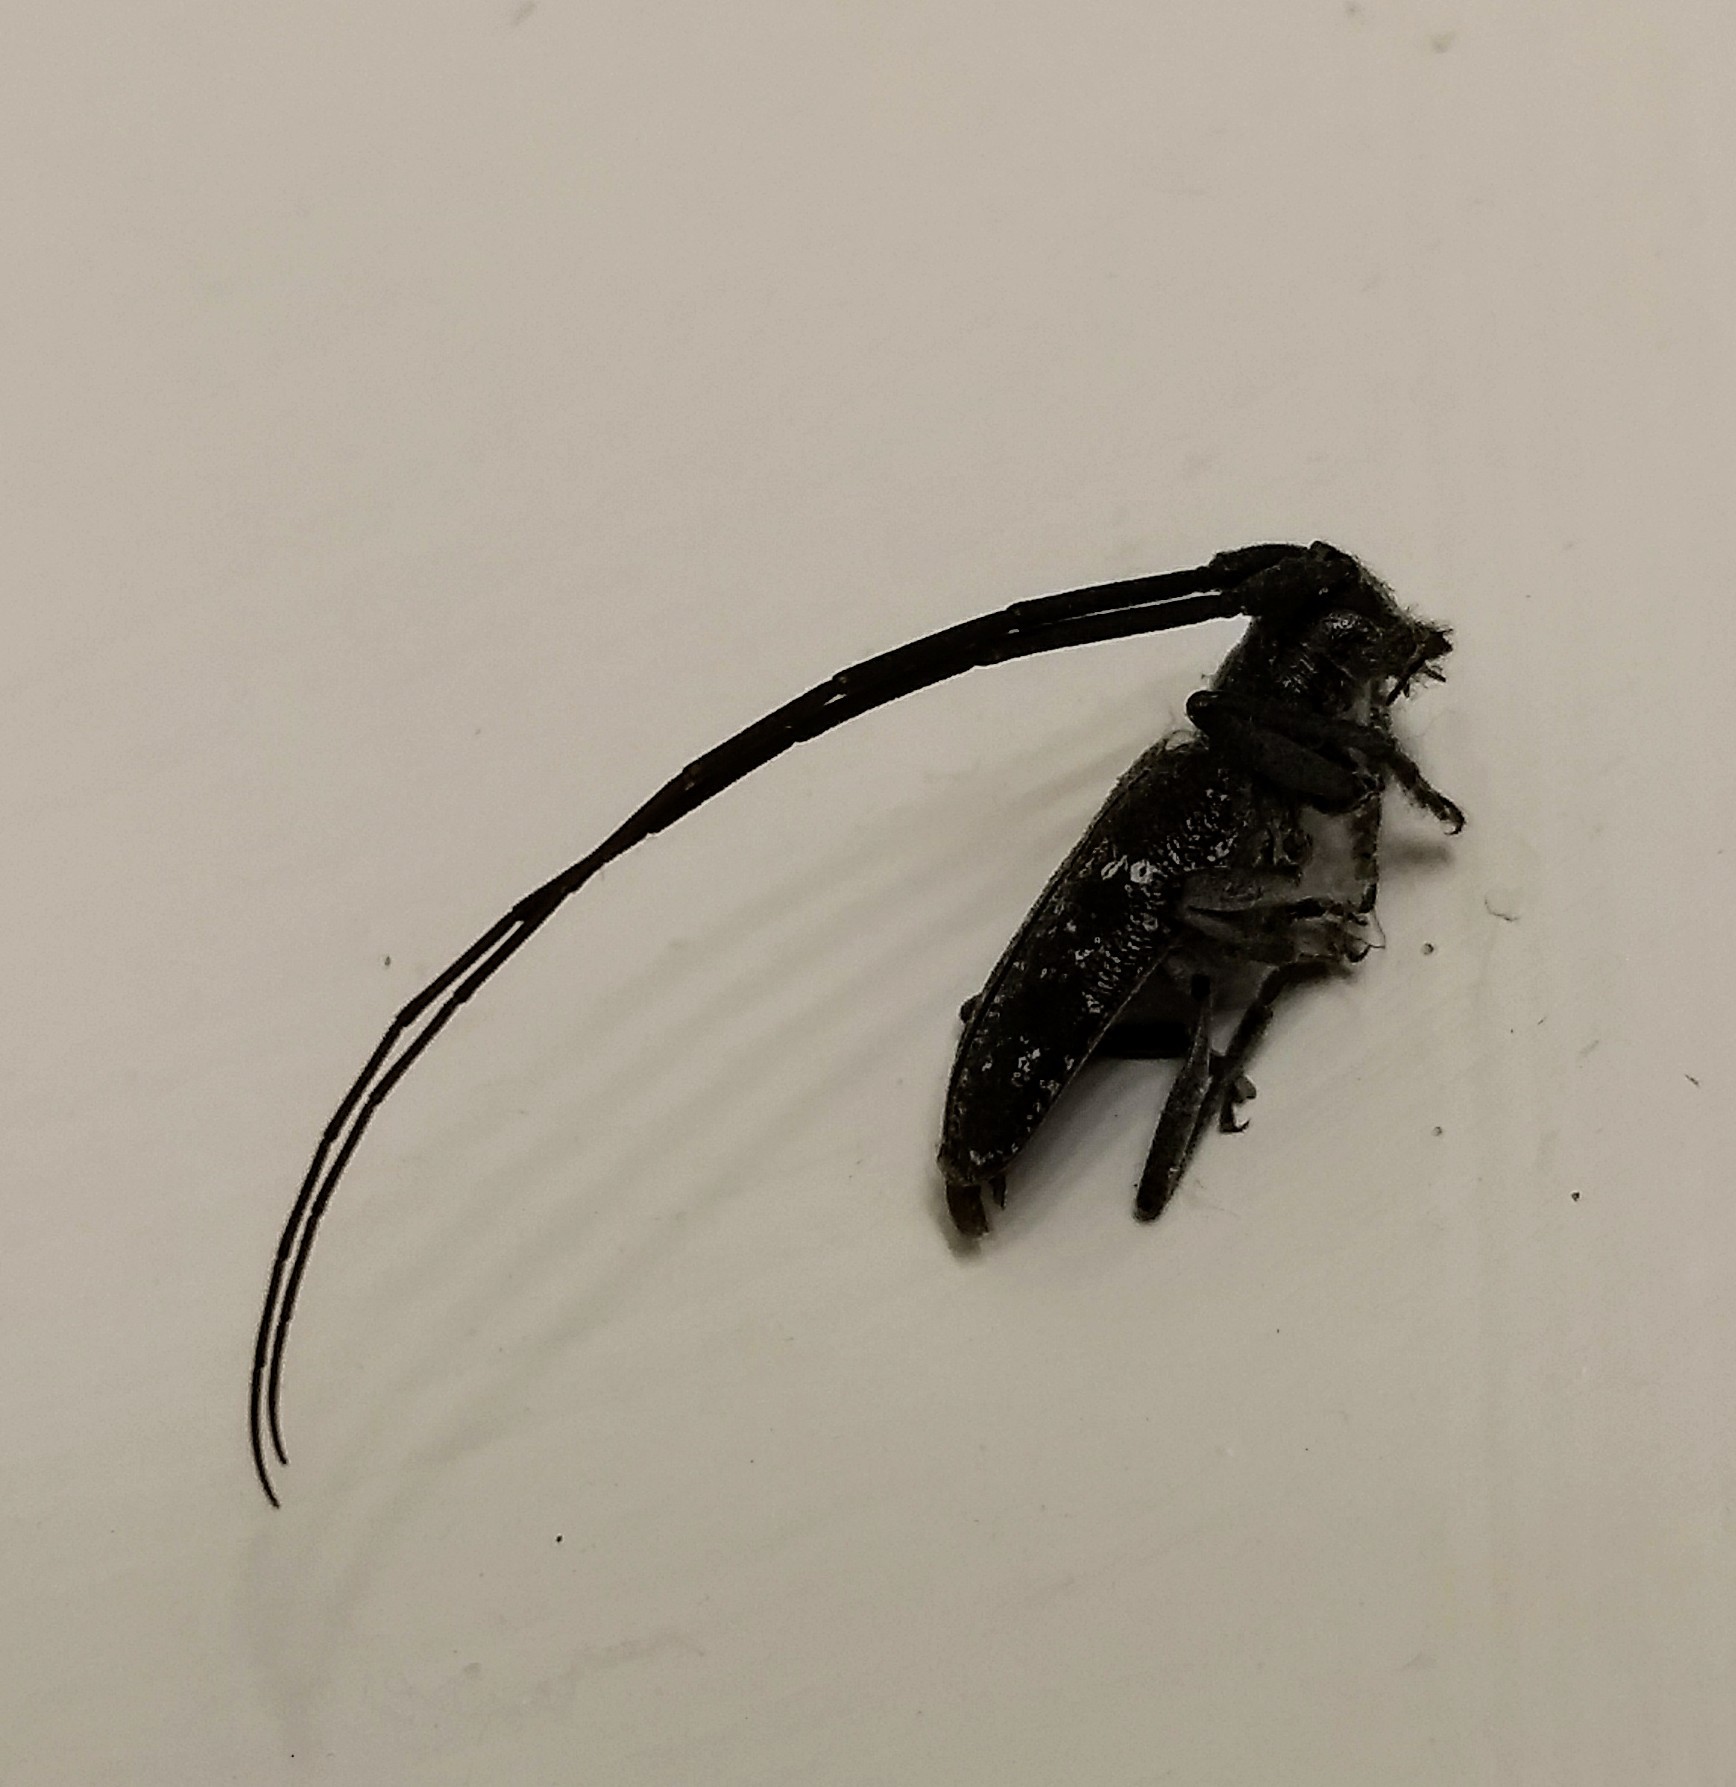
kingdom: Animalia
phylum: Arthropoda
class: Insecta
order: Coleoptera
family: Cerambycidae
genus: Monochamus
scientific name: Monochamus scutellatus
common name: White-spotted sawyer beetle
